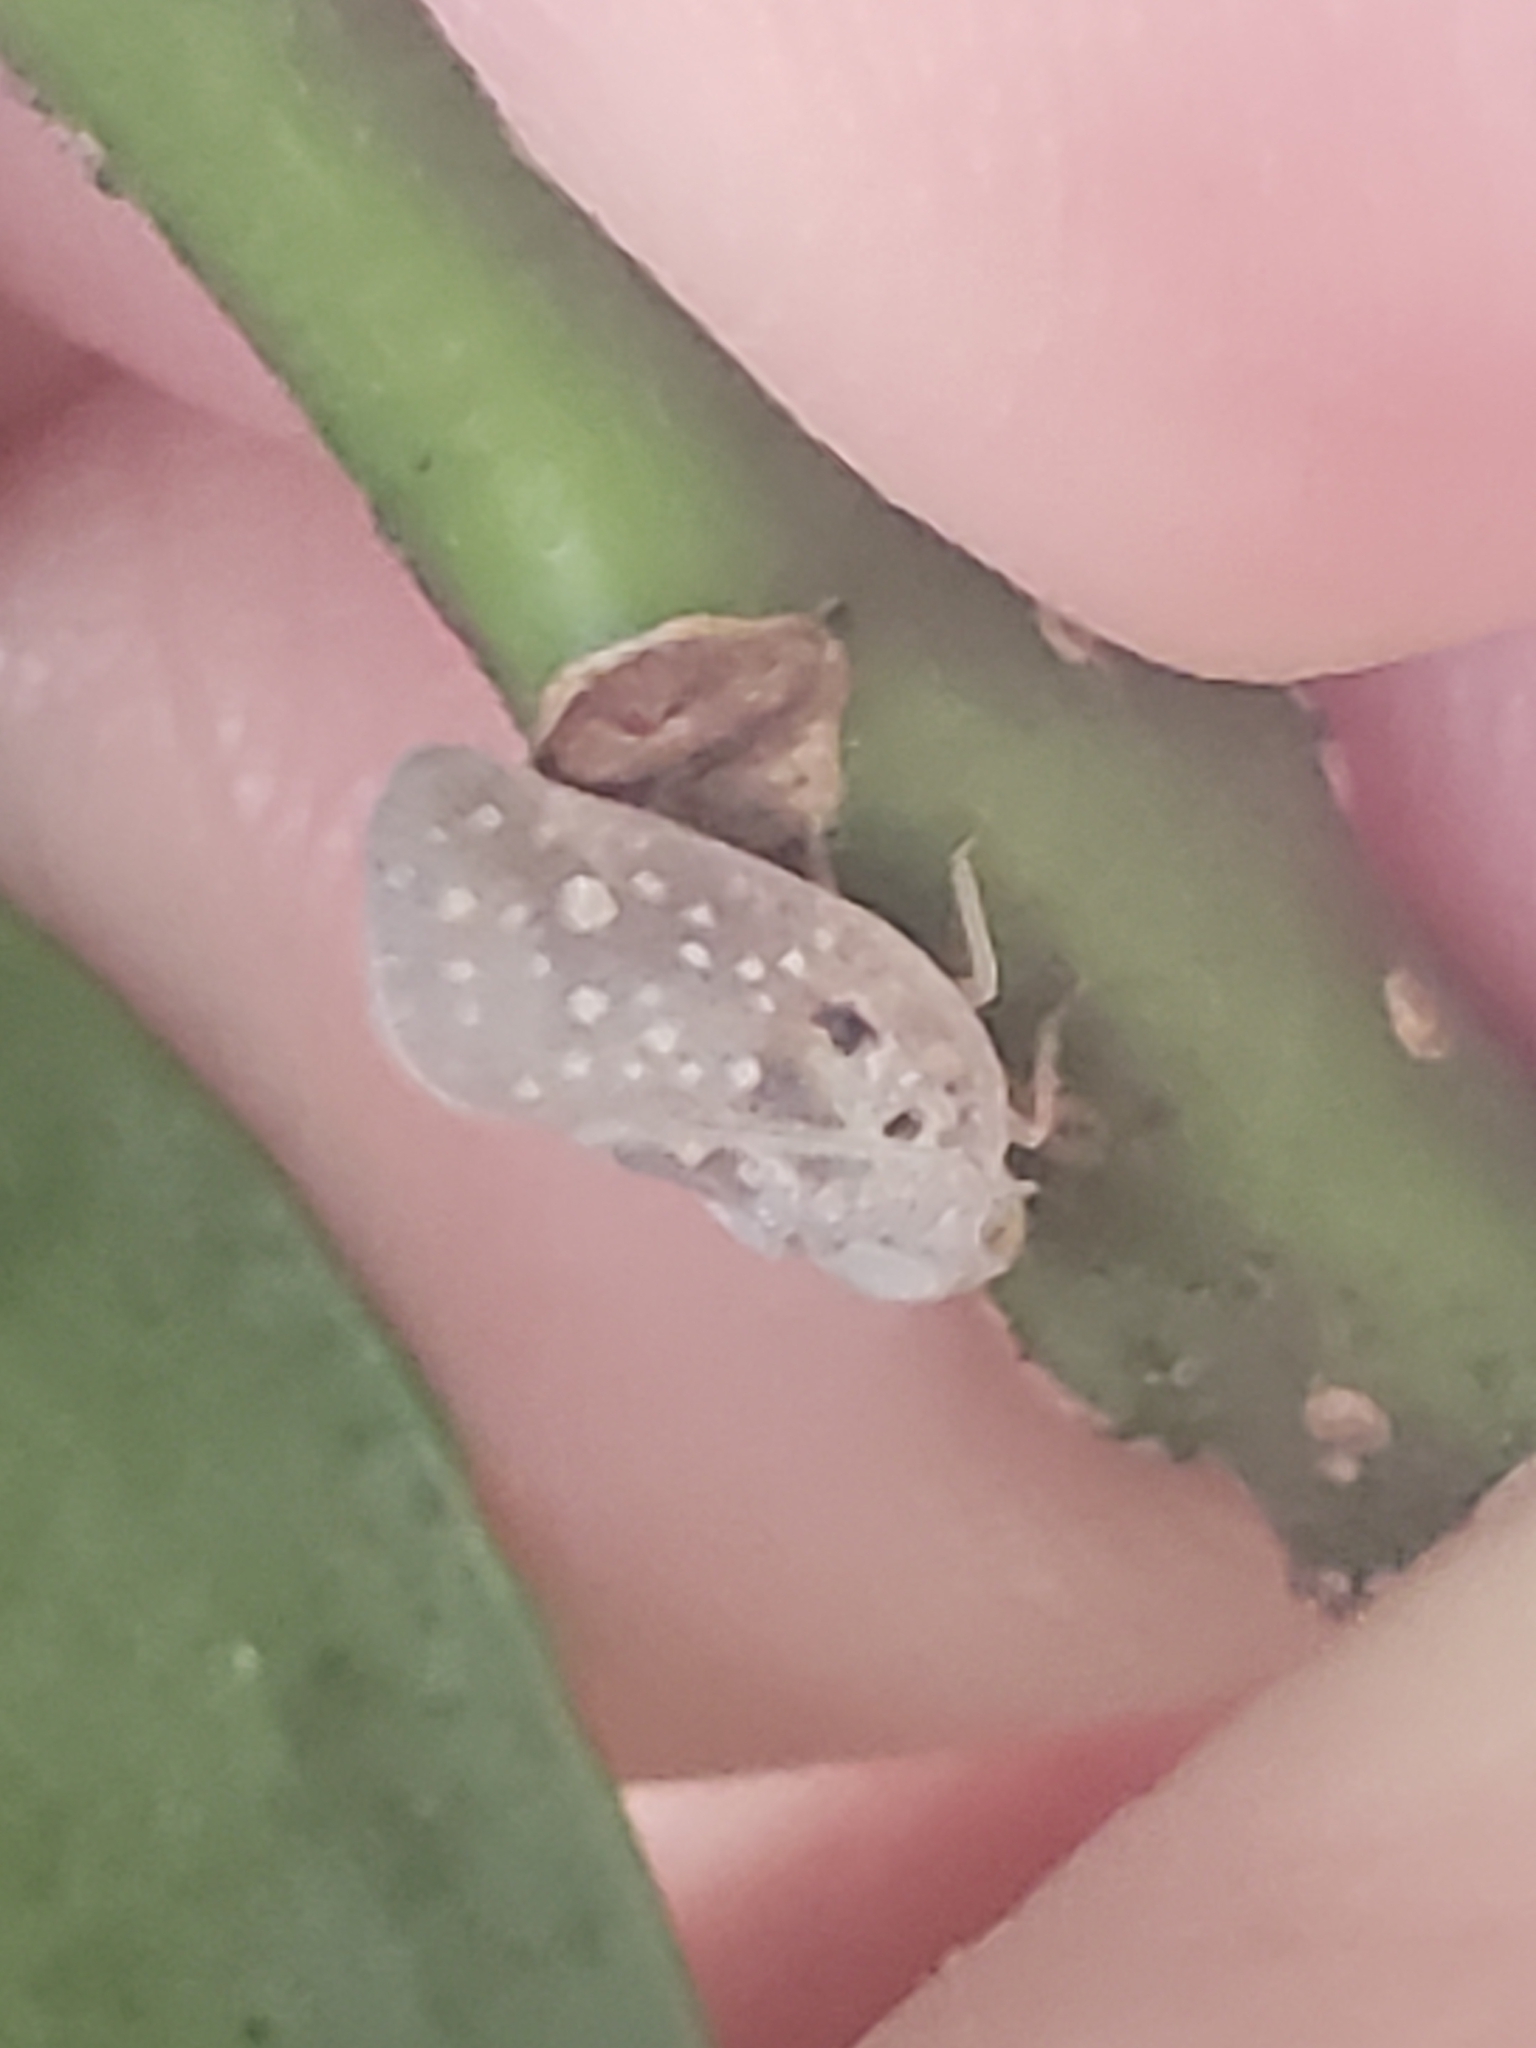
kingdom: Animalia
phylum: Arthropoda
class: Insecta
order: Hemiptera
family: Flatidae
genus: Metcalfa
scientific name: Metcalfa pruinosa
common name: Citrus flatid planthopper
